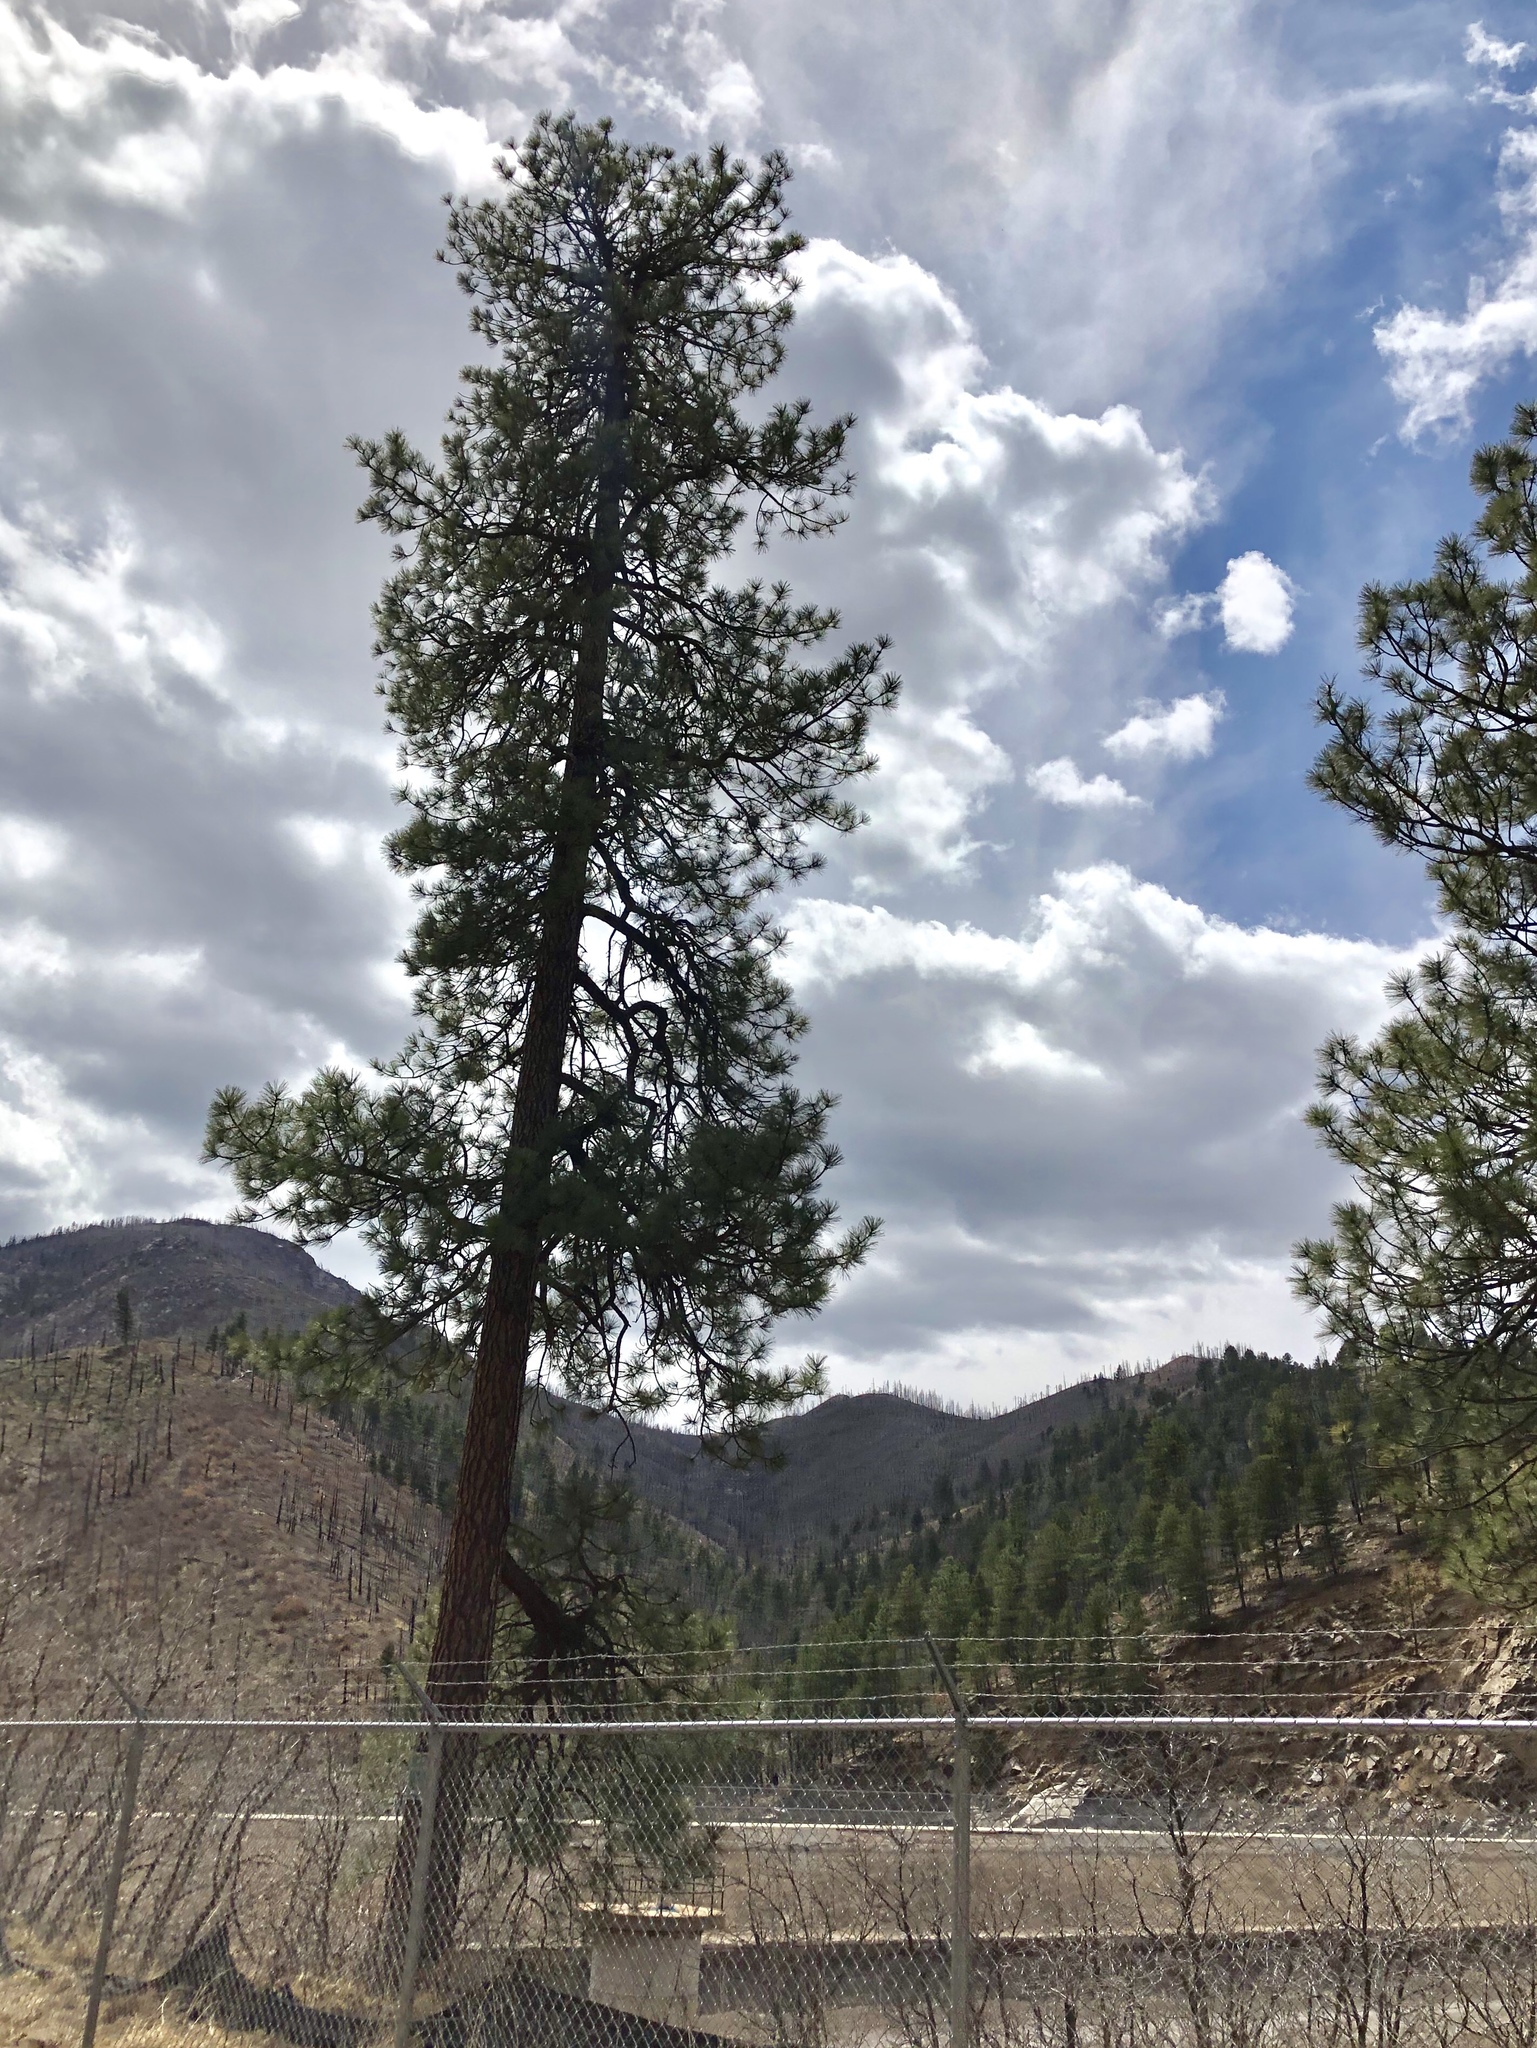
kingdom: Plantae
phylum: Tracheophyta
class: Pinopsida
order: Pinales
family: Pinaceae
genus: Pinus
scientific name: Pinus ponderosa
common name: Western yellow-pine
